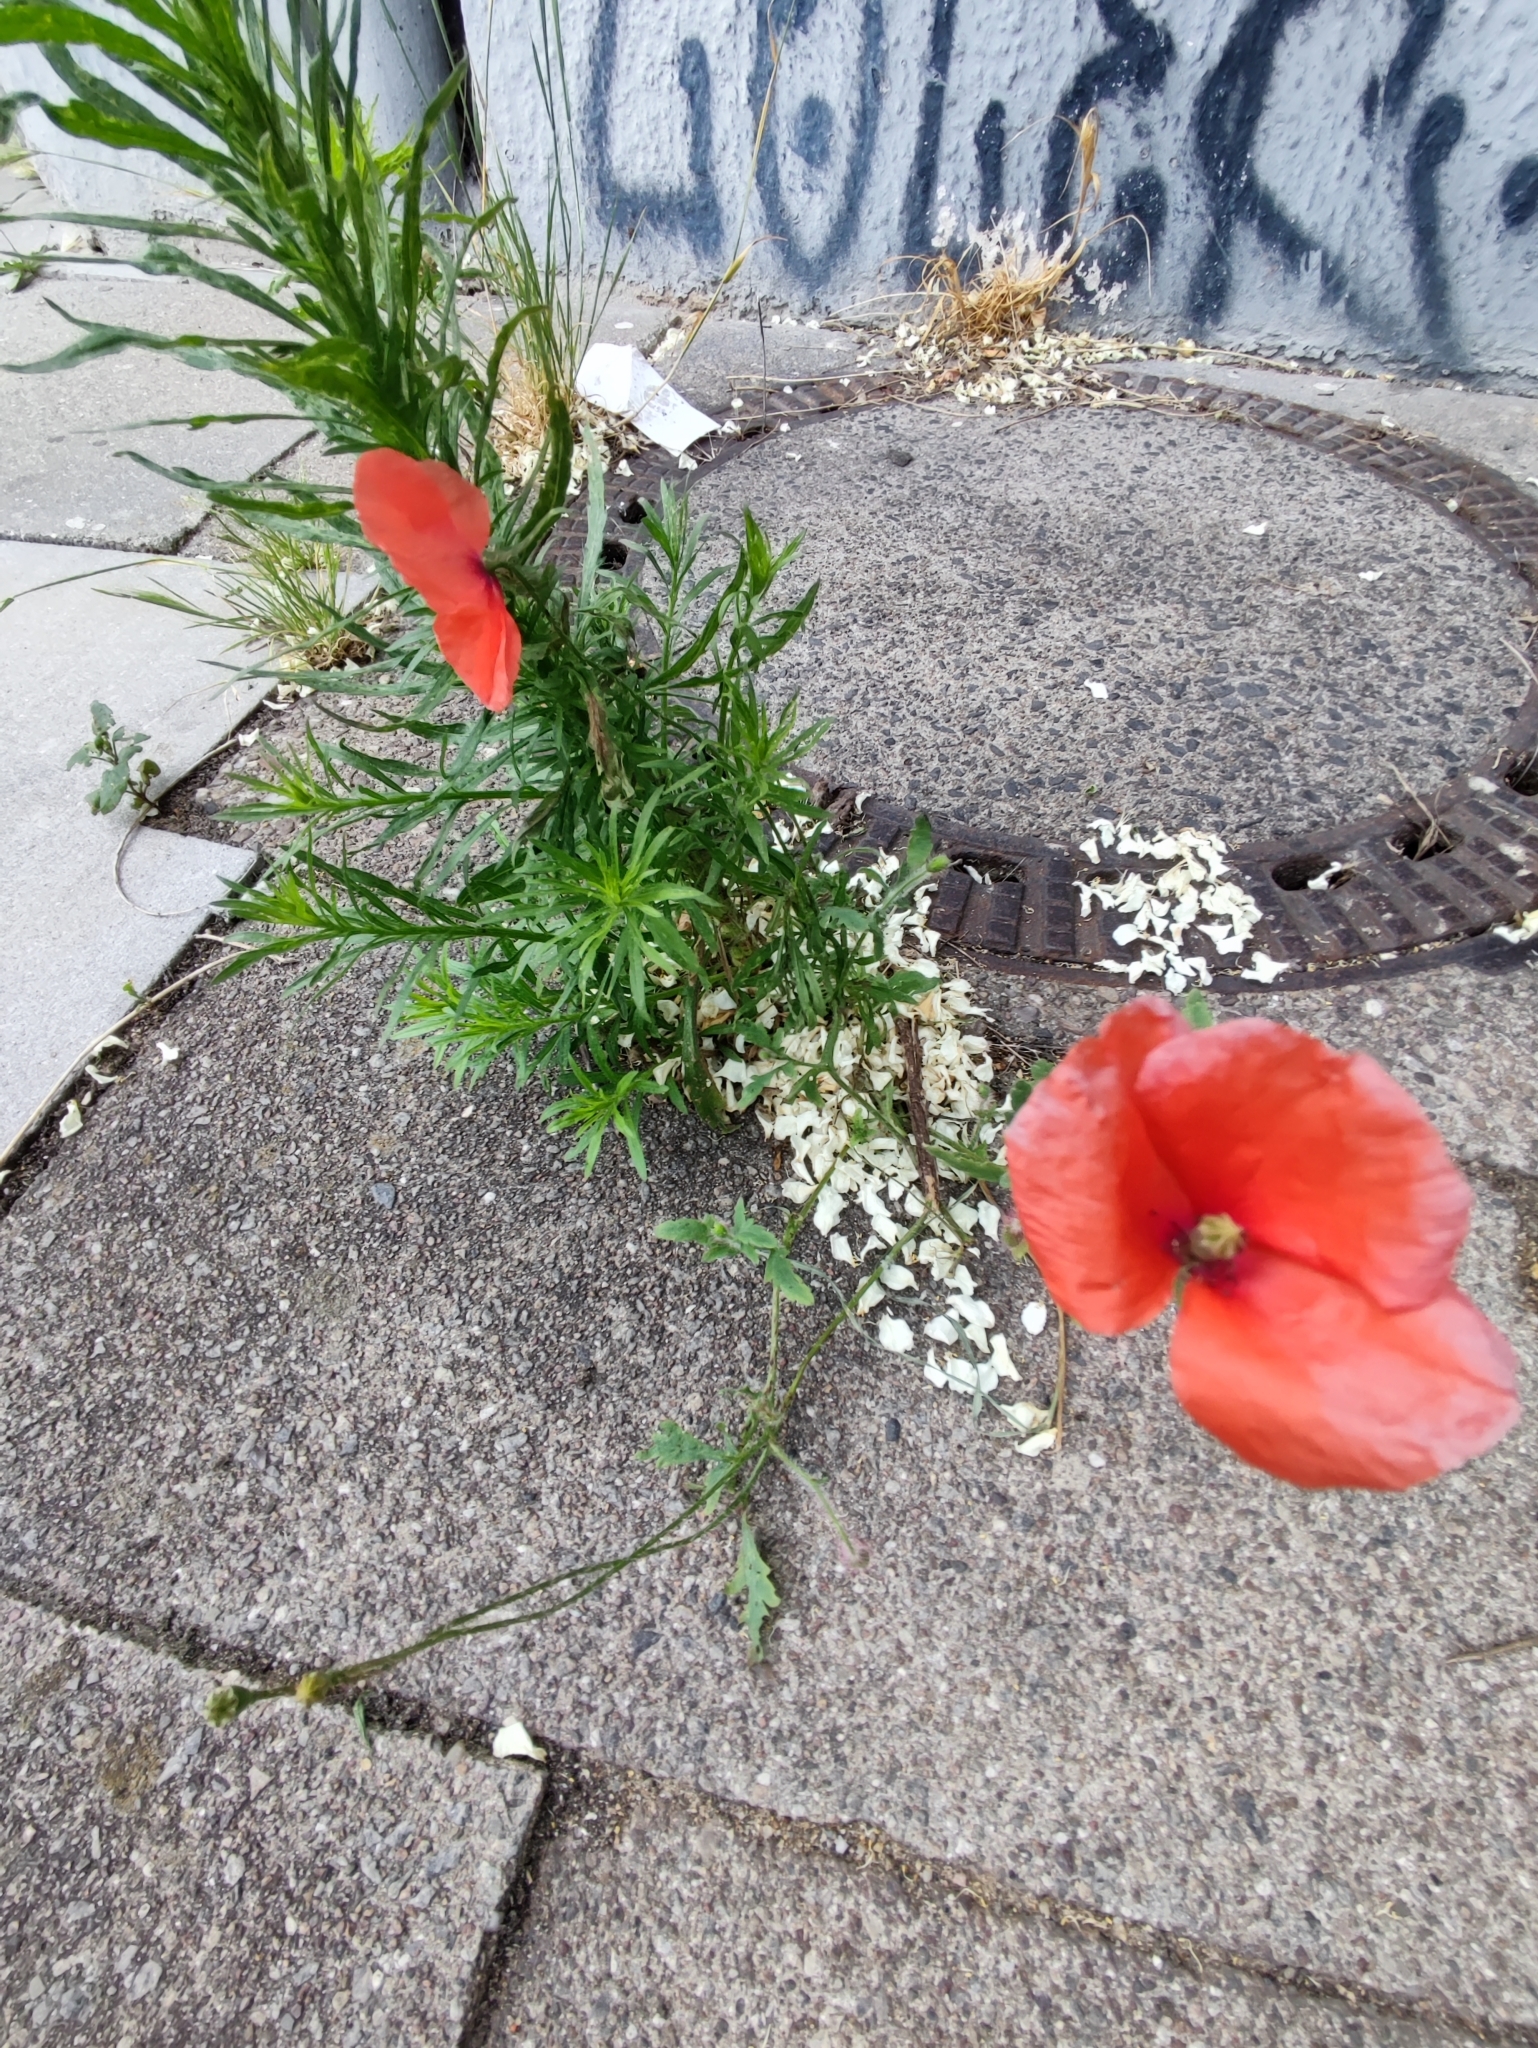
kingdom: Plantae
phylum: Tracheophyta
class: Magnoliopsida
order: Ranunculales
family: Papaveraceae
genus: Papaver
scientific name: Papaver rhoeas
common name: Corn poppy
